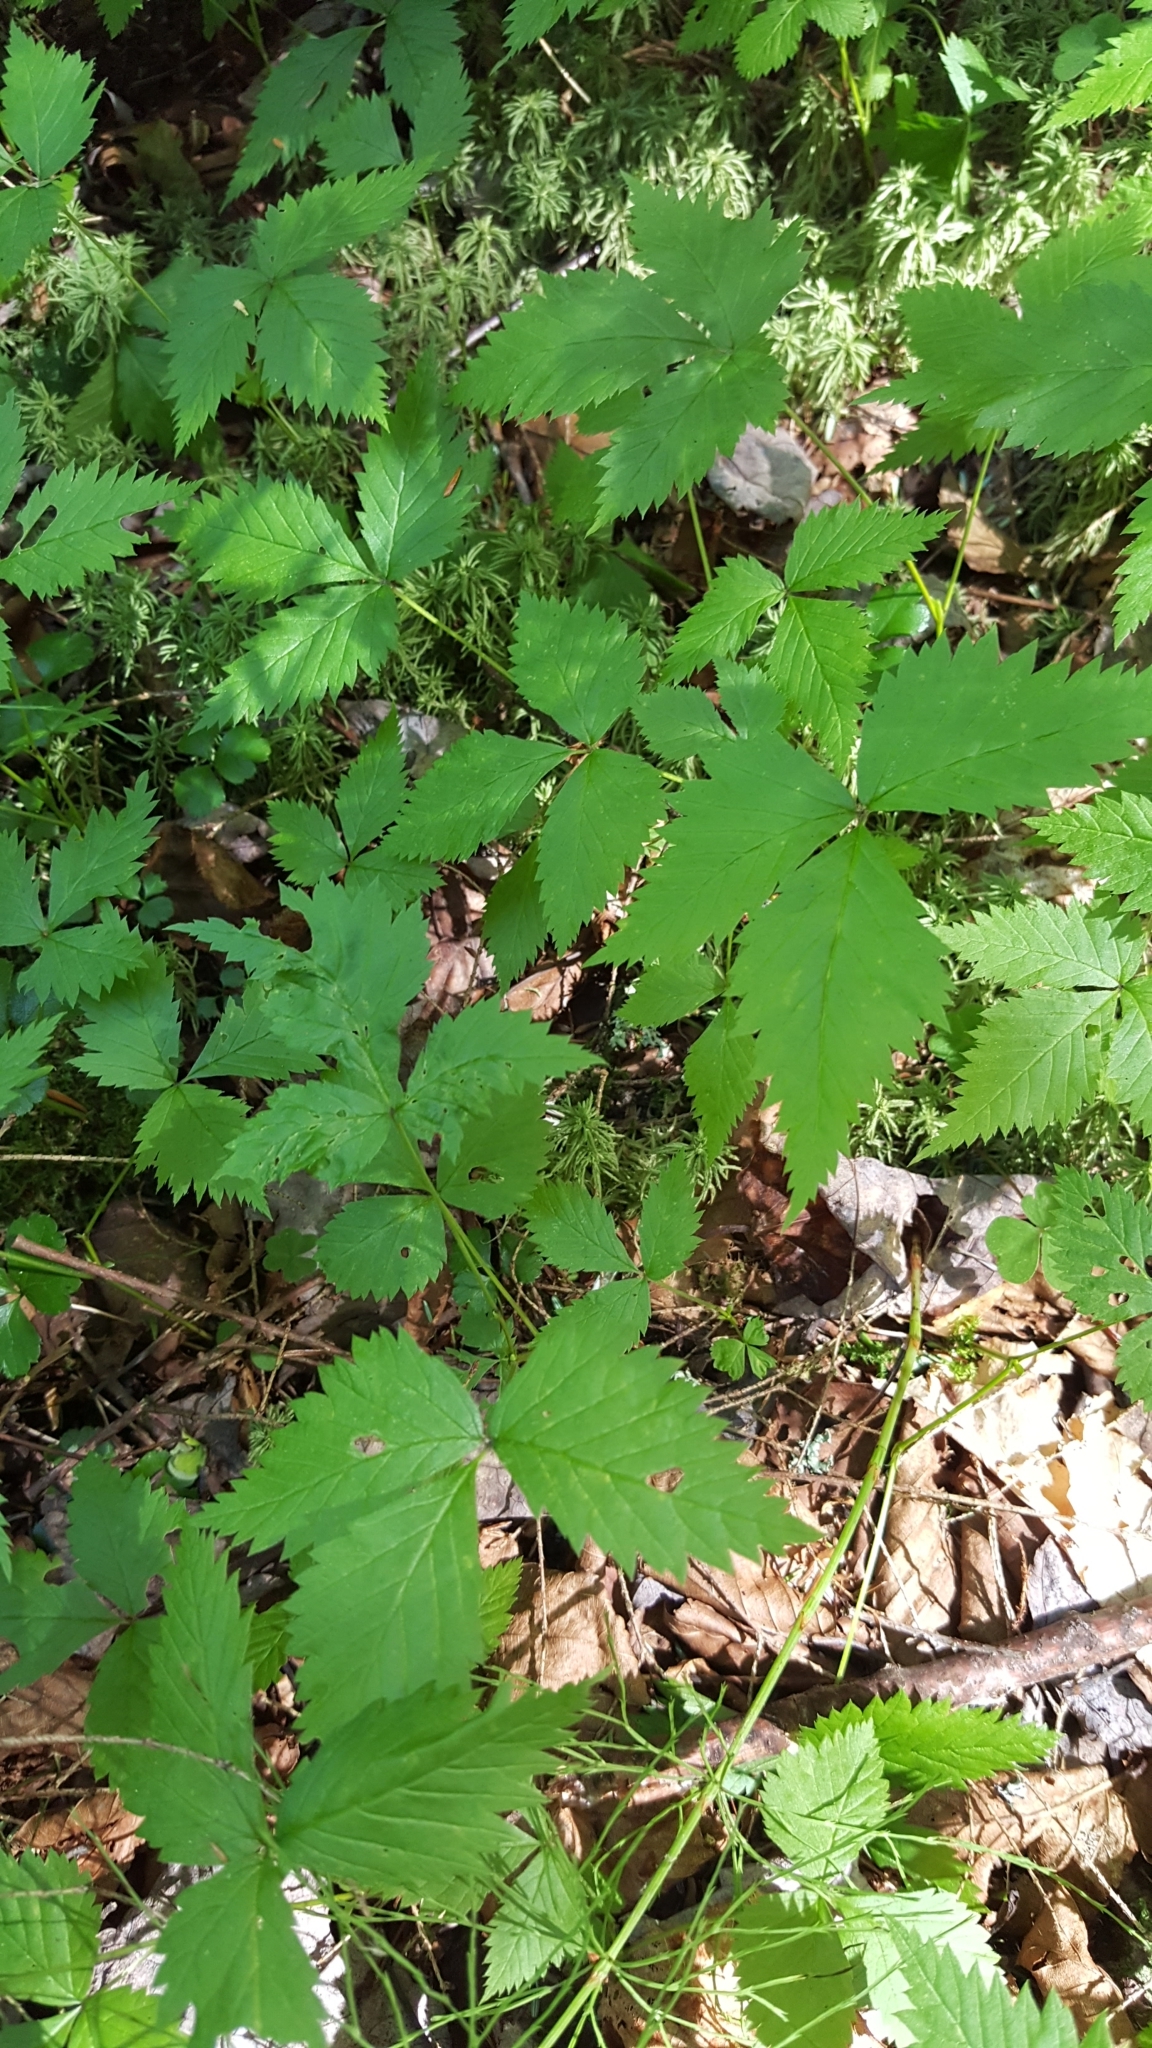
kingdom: Plantae
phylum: Tracheophyta
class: Magnoliopsida
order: Rosales
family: Rosaceae
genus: Rubus
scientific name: Rubus pubescens
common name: Dwarf raspberry
